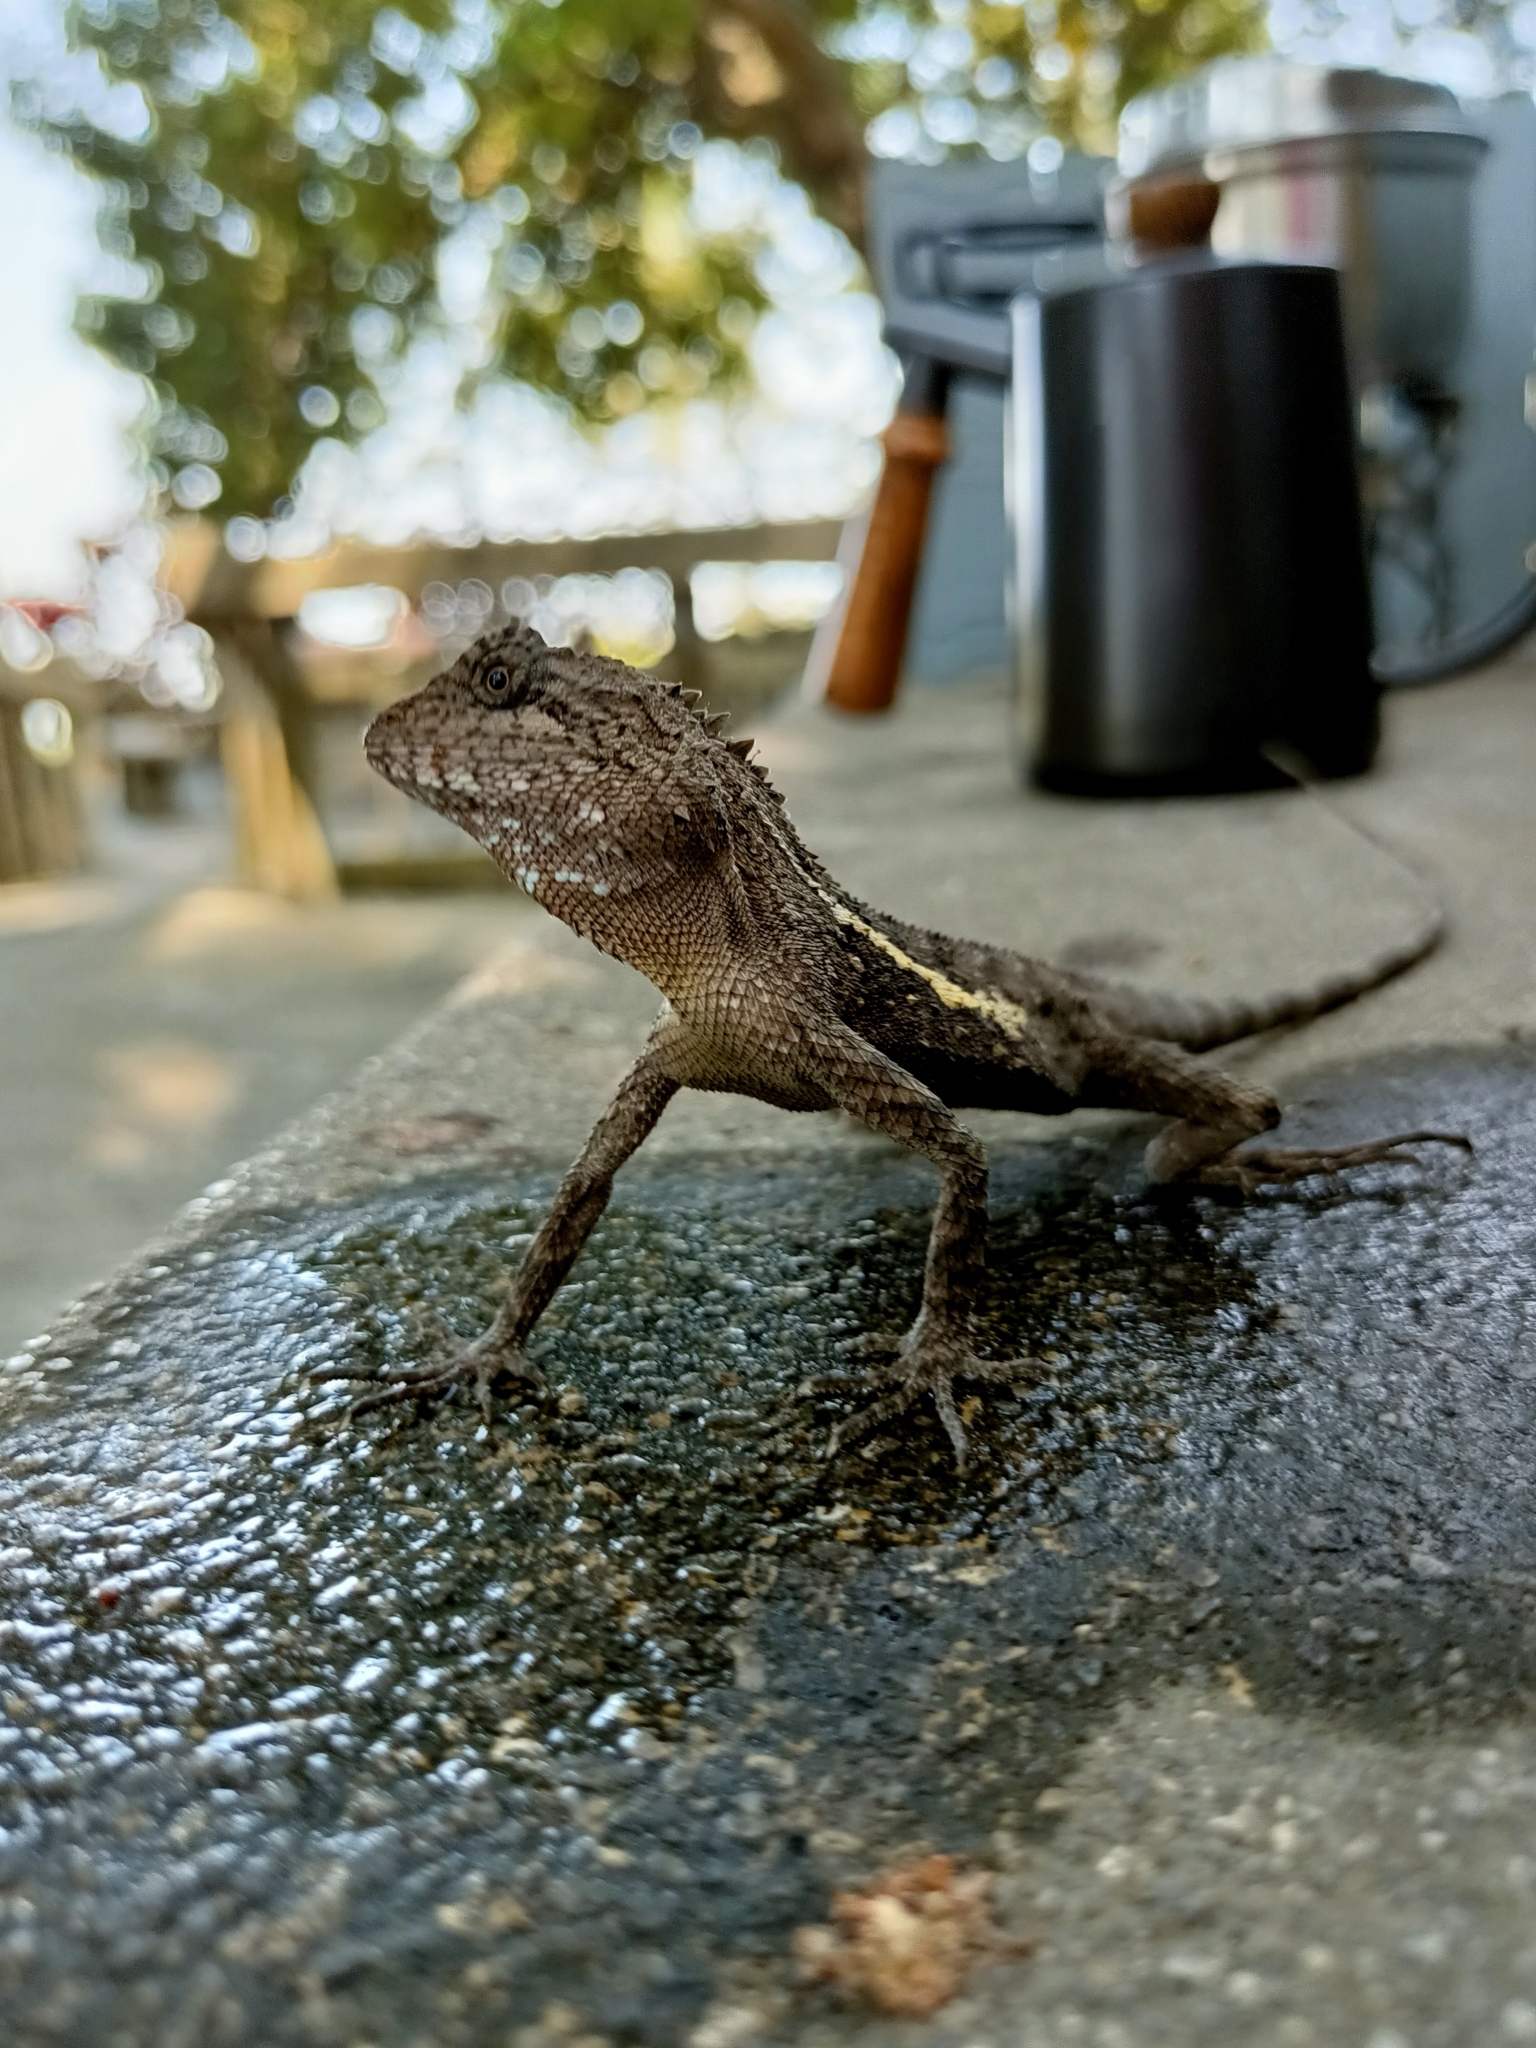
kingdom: Animalia
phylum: Chordata
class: Squamata
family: Agamidae
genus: Diploderma
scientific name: Diploderma swinhonis
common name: Taiwan japalure
